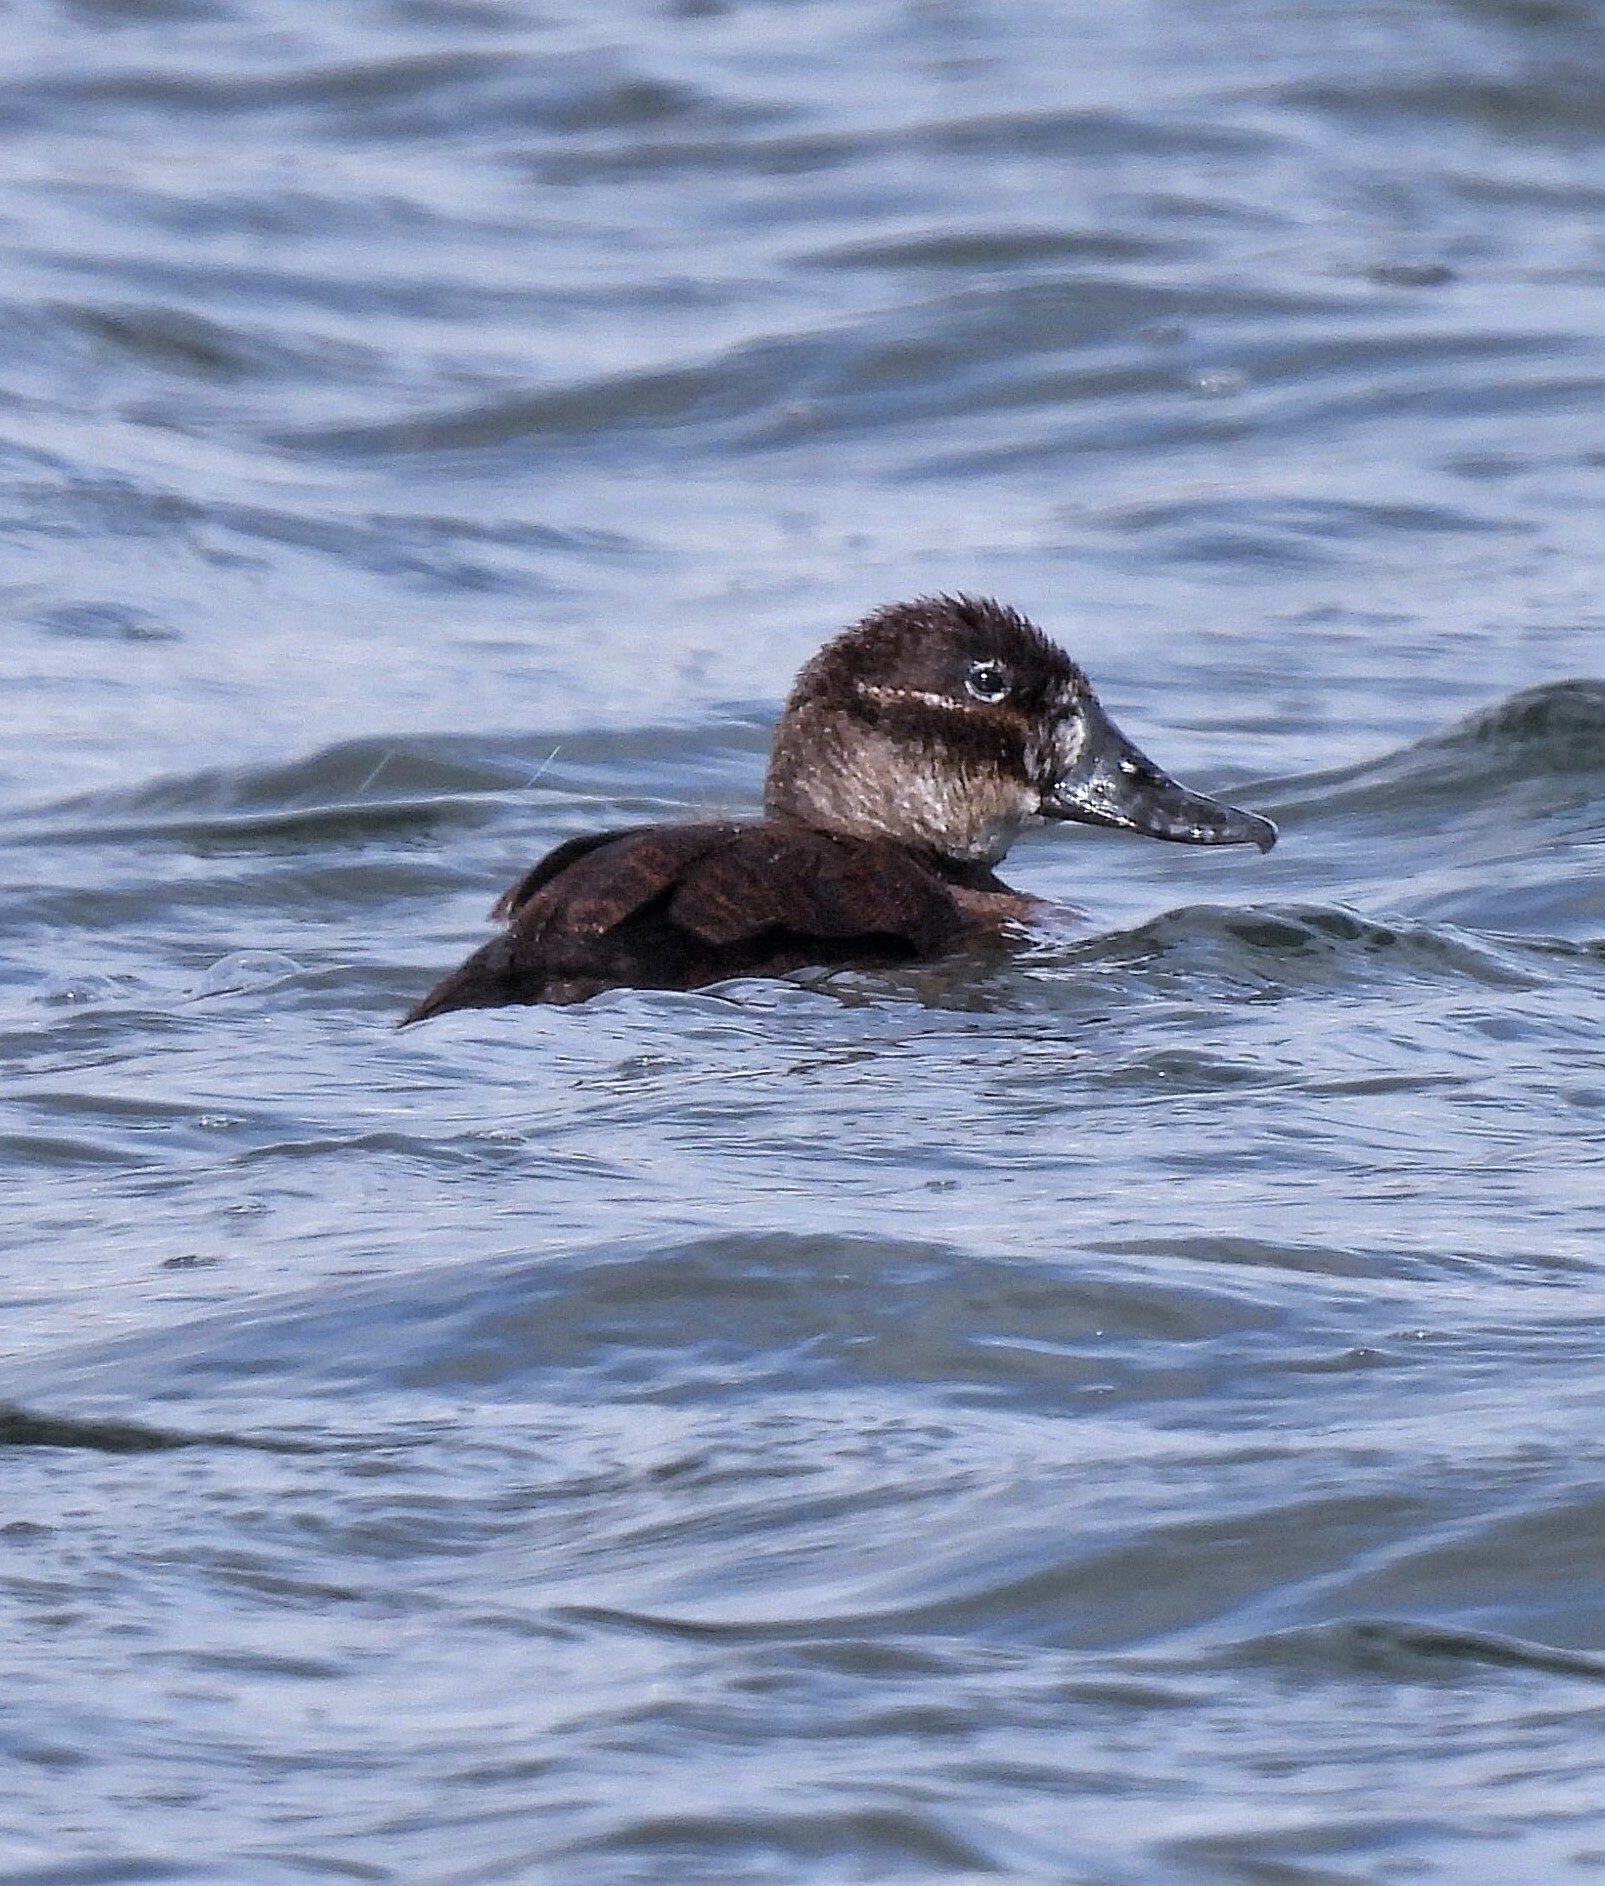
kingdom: Animalia
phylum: Chordata
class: Aves
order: Anseriformes
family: Anatidae
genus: Oxyura
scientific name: Oxyura ferruginea
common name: Andean duck
